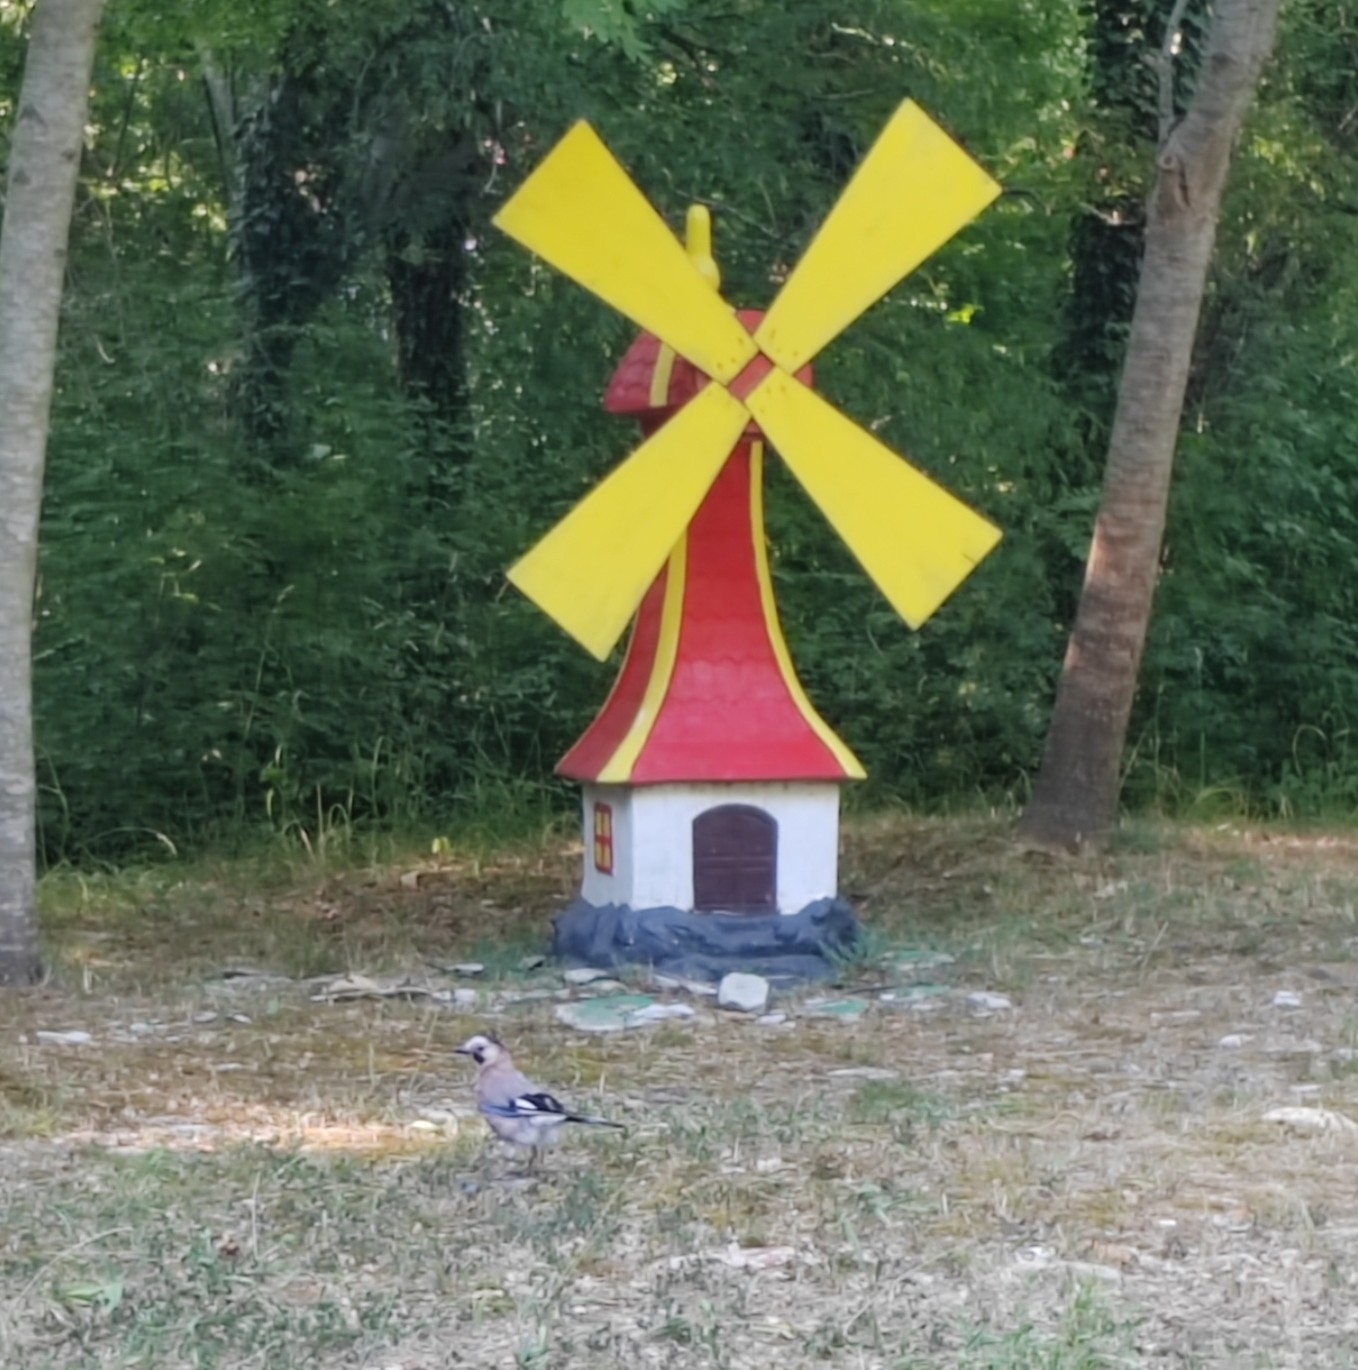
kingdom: Animalia
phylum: Chordata
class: Aves
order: Passeriformes
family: Corvidae
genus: Garrulus
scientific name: Garrulus glandarius
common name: Eurasian jay
